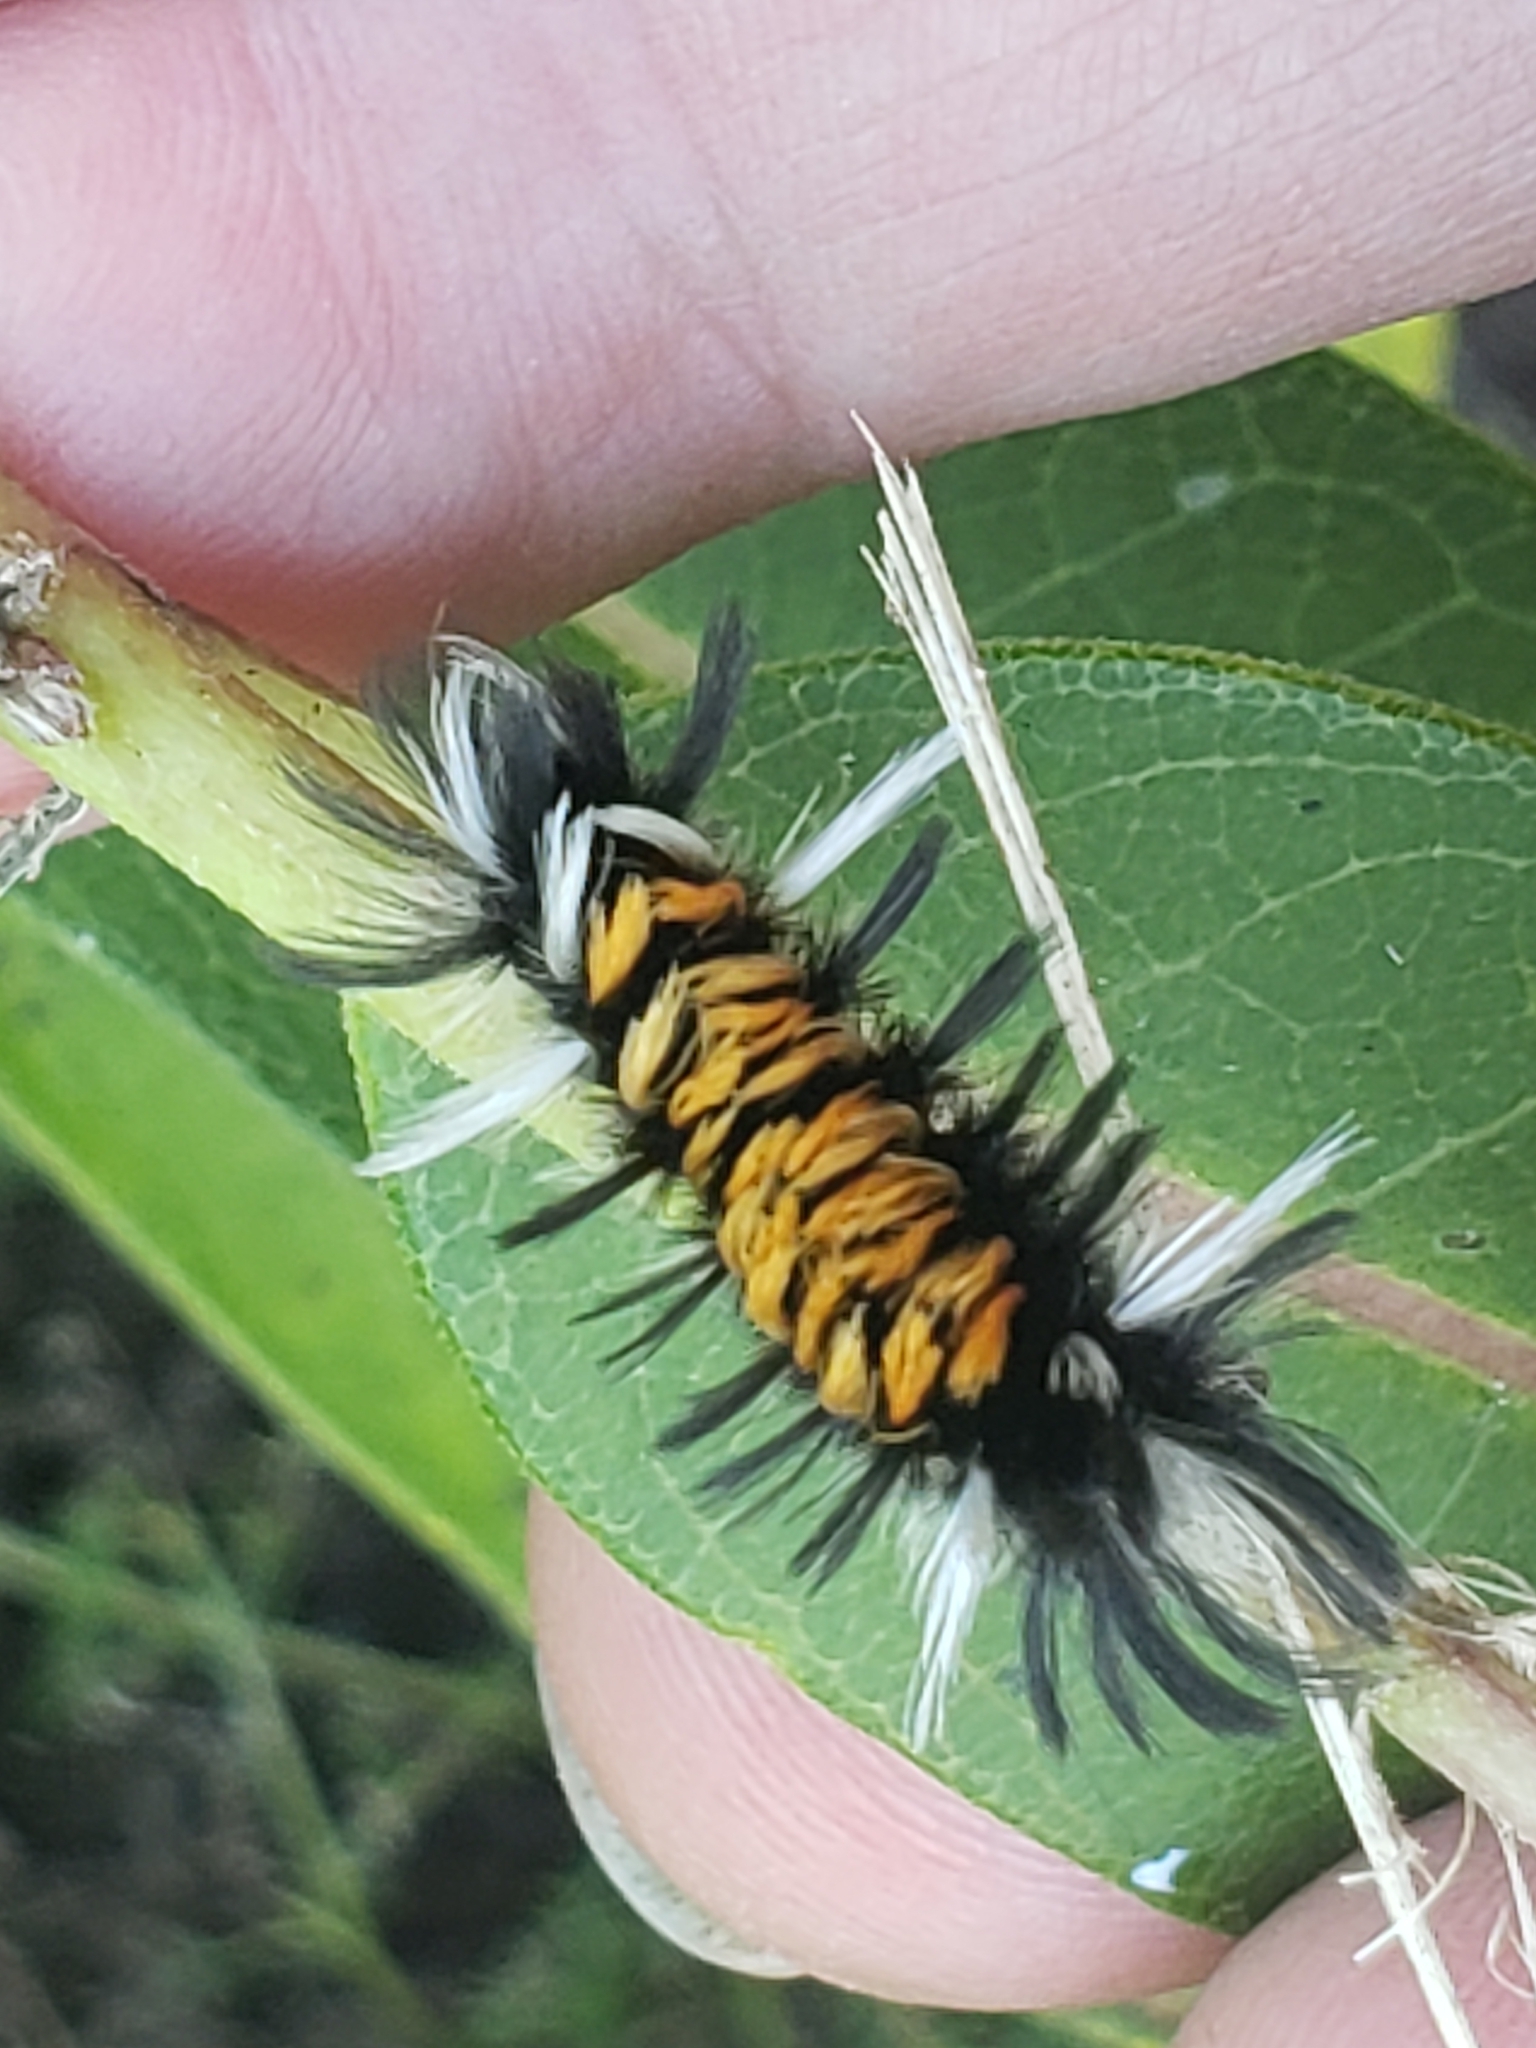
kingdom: Animalia
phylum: Arthropoda
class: Insecta
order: Lepidoptera
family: Erebidae
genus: Euchaetes
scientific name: Euchaetes egle
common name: Milkweed tussock moth
